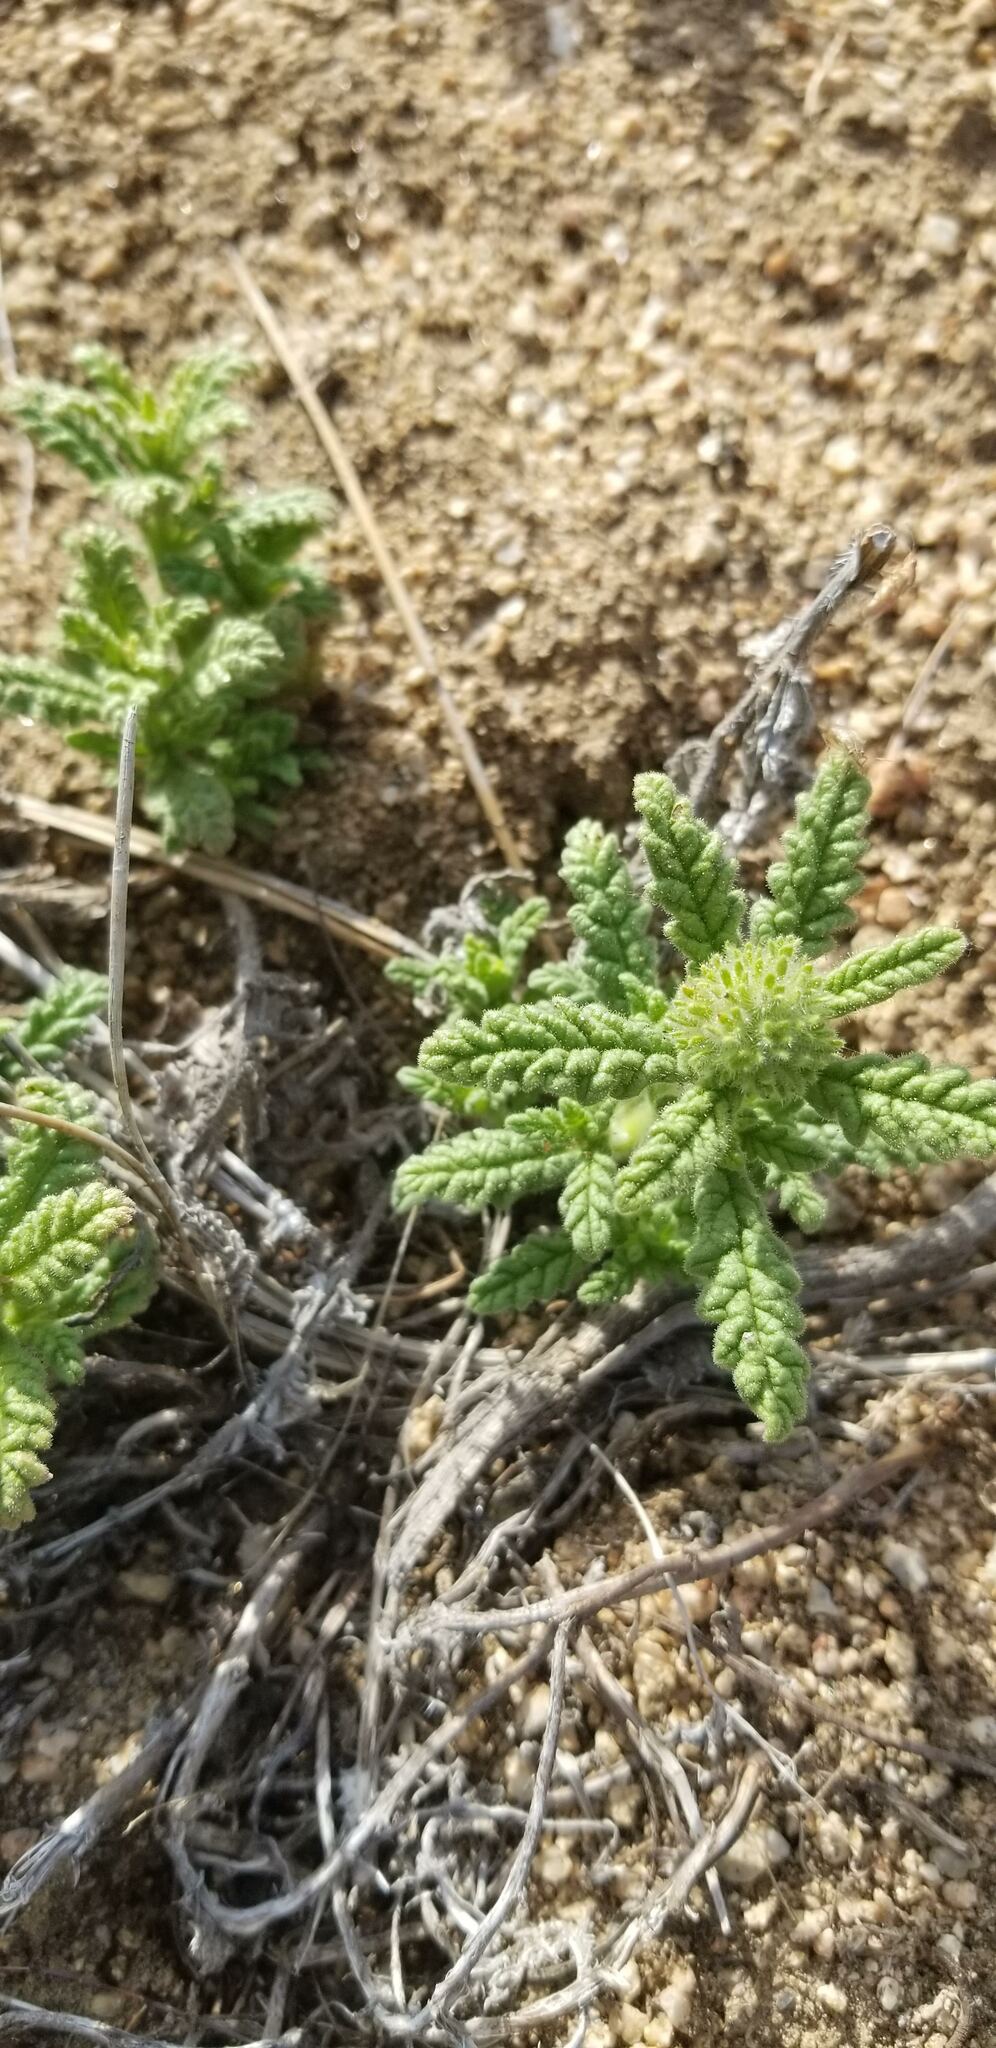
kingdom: Plantae
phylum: Tracheophyta
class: Magnoliopsida
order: Boraginales
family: Namaceae
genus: Nama
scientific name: Nama rothrockii
